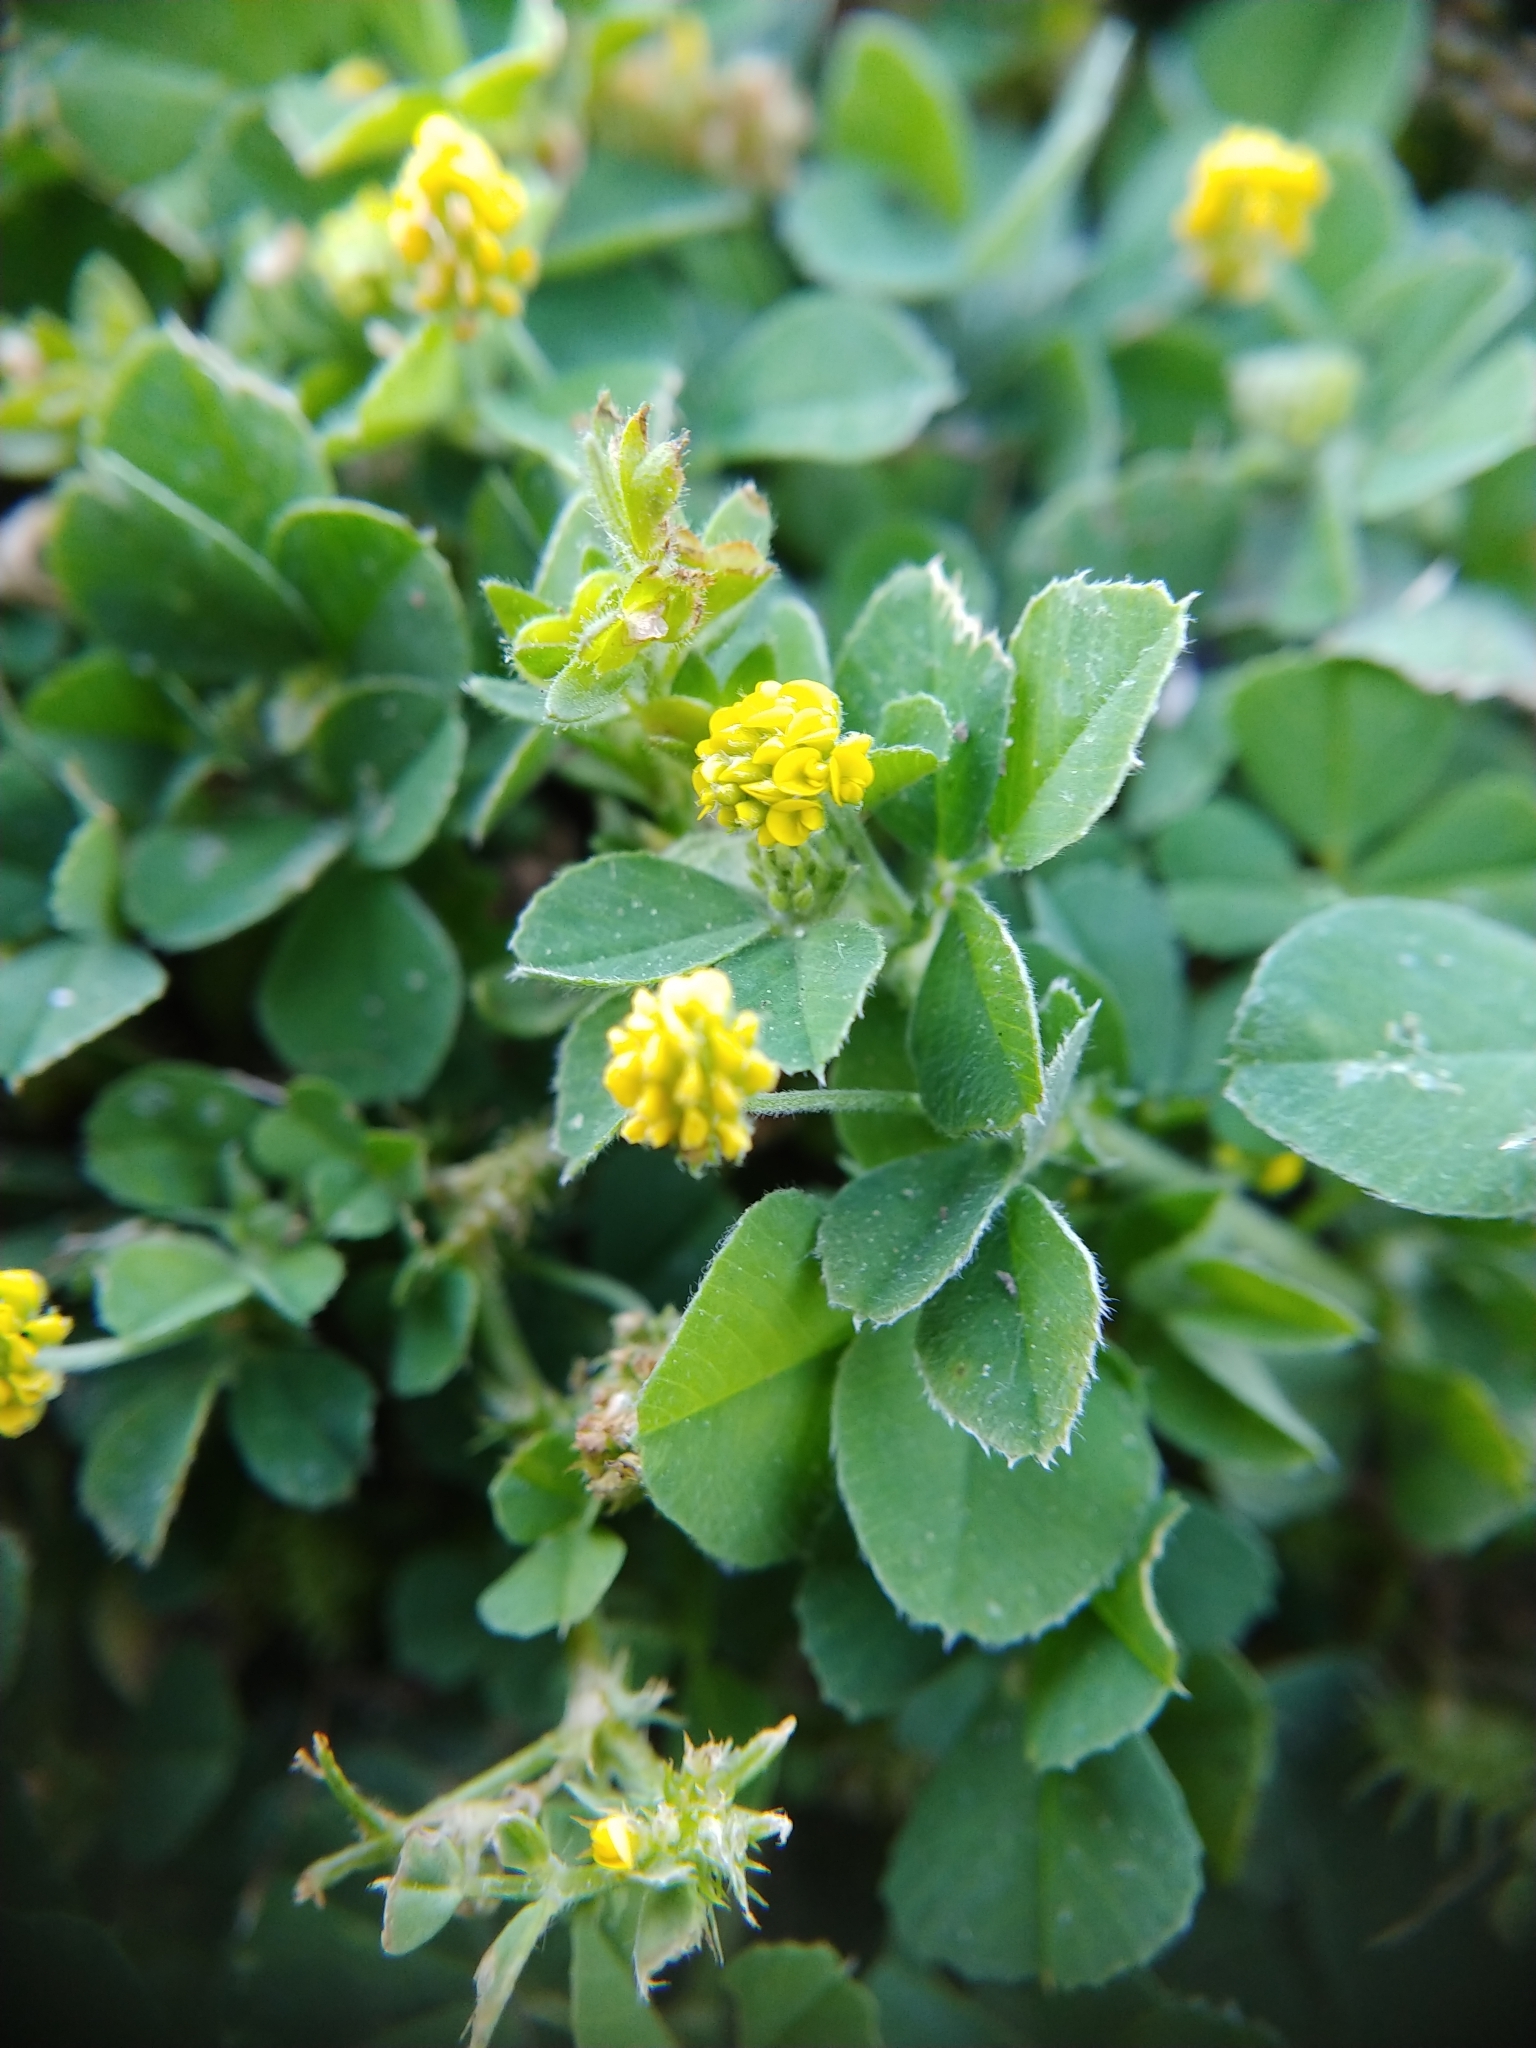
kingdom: Plantae
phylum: Tracheophyta
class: Magnoliopsida
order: Fabales
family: Fabaceae
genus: Medicago
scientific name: Medicago lupulina
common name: Black medick
